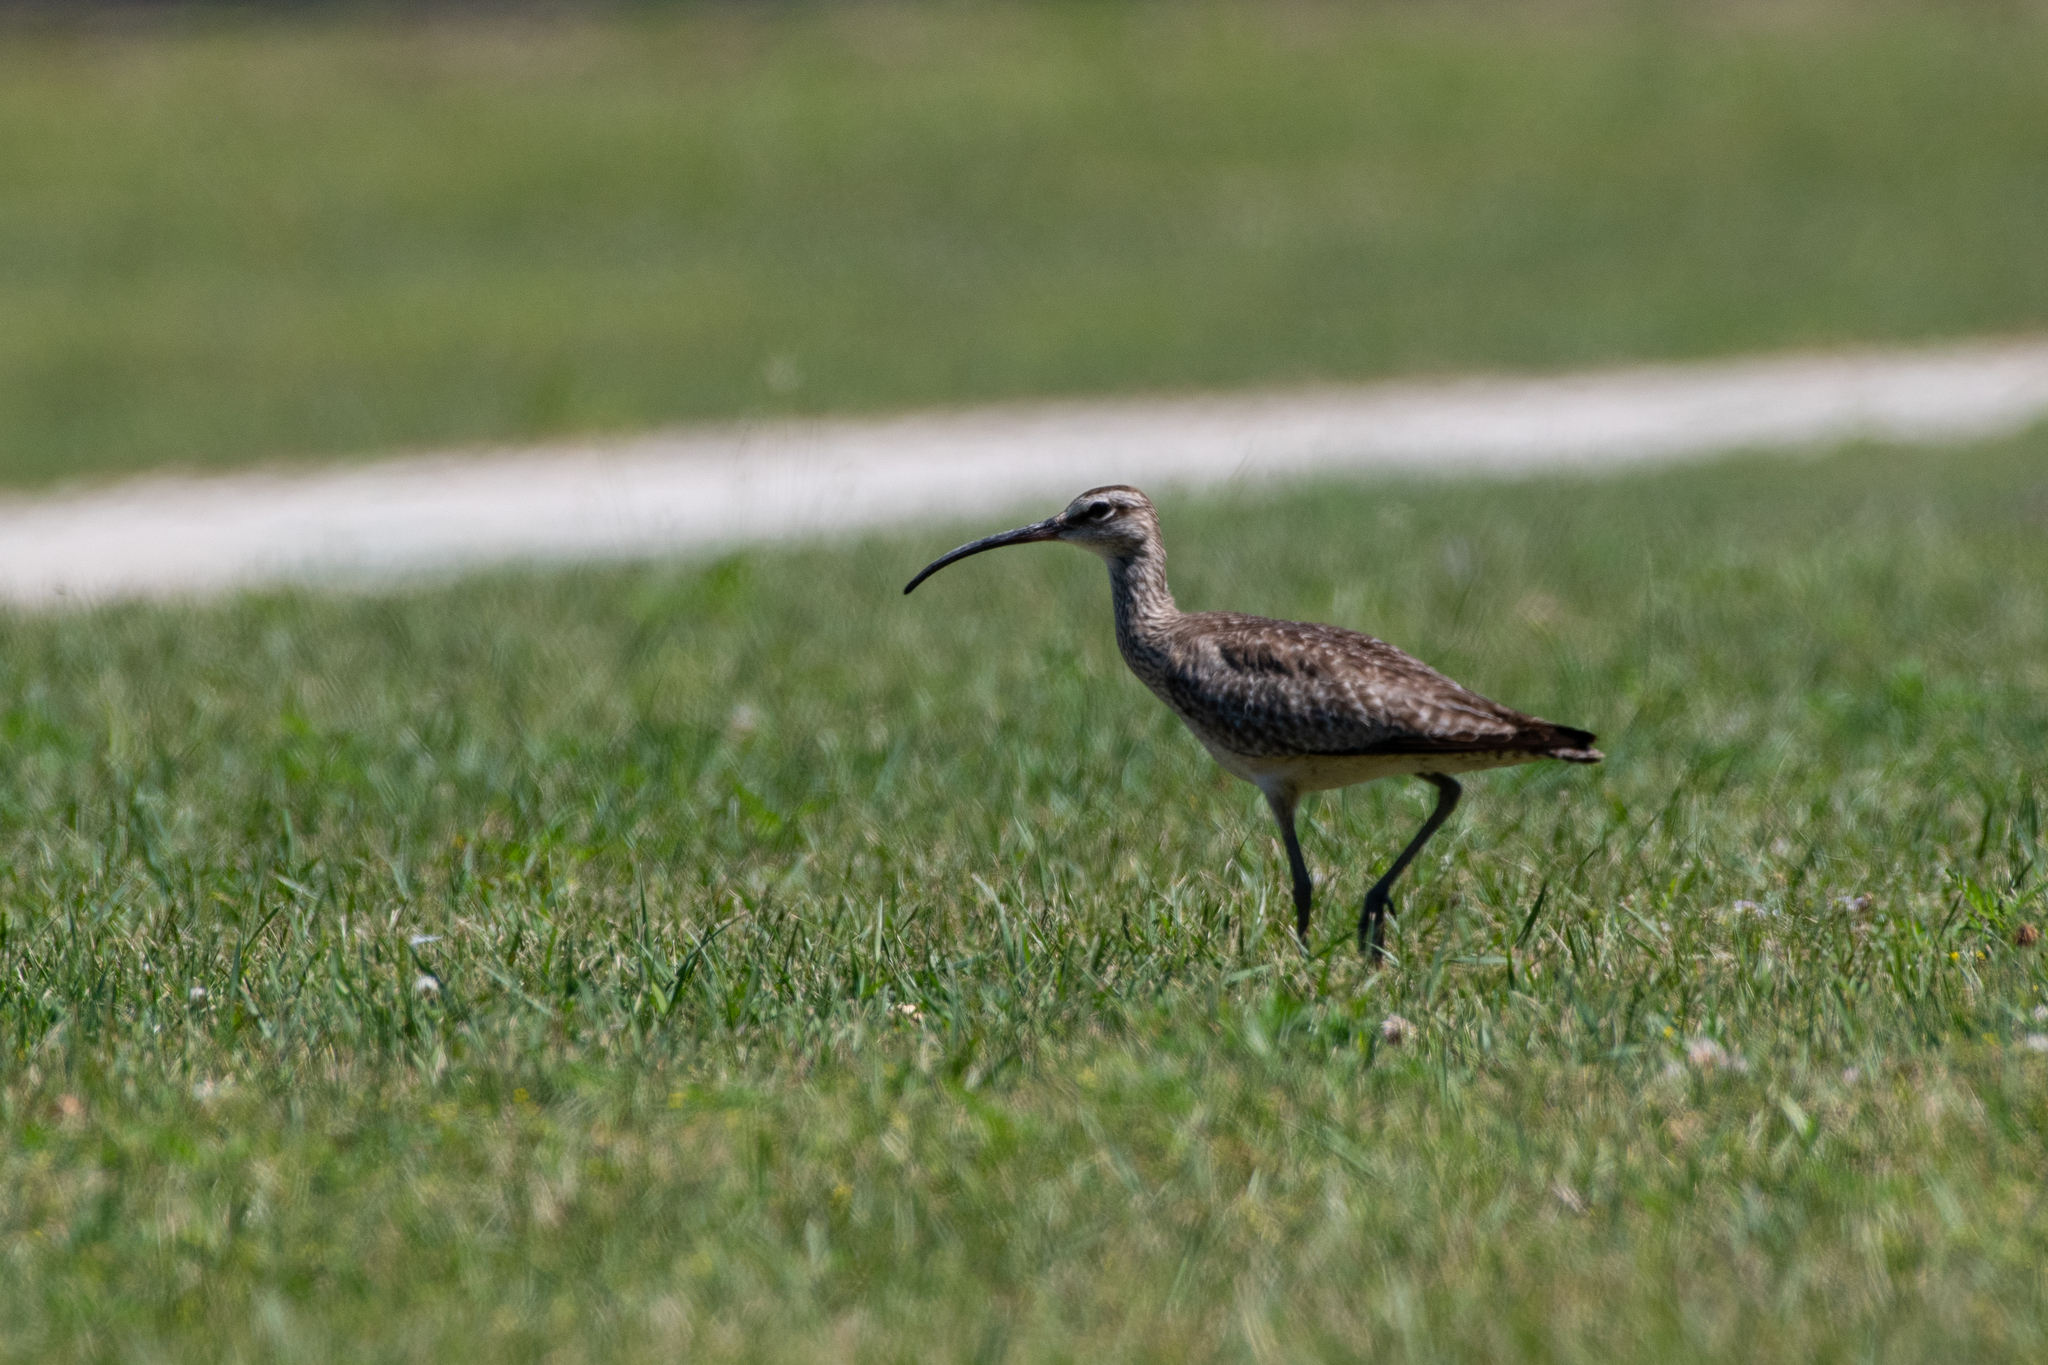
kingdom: Animalia
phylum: Chordata
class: Aves
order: Charadriiformes
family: Scolopacidae
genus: Numenius
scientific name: Numenius phaeopus
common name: Whimbrel
